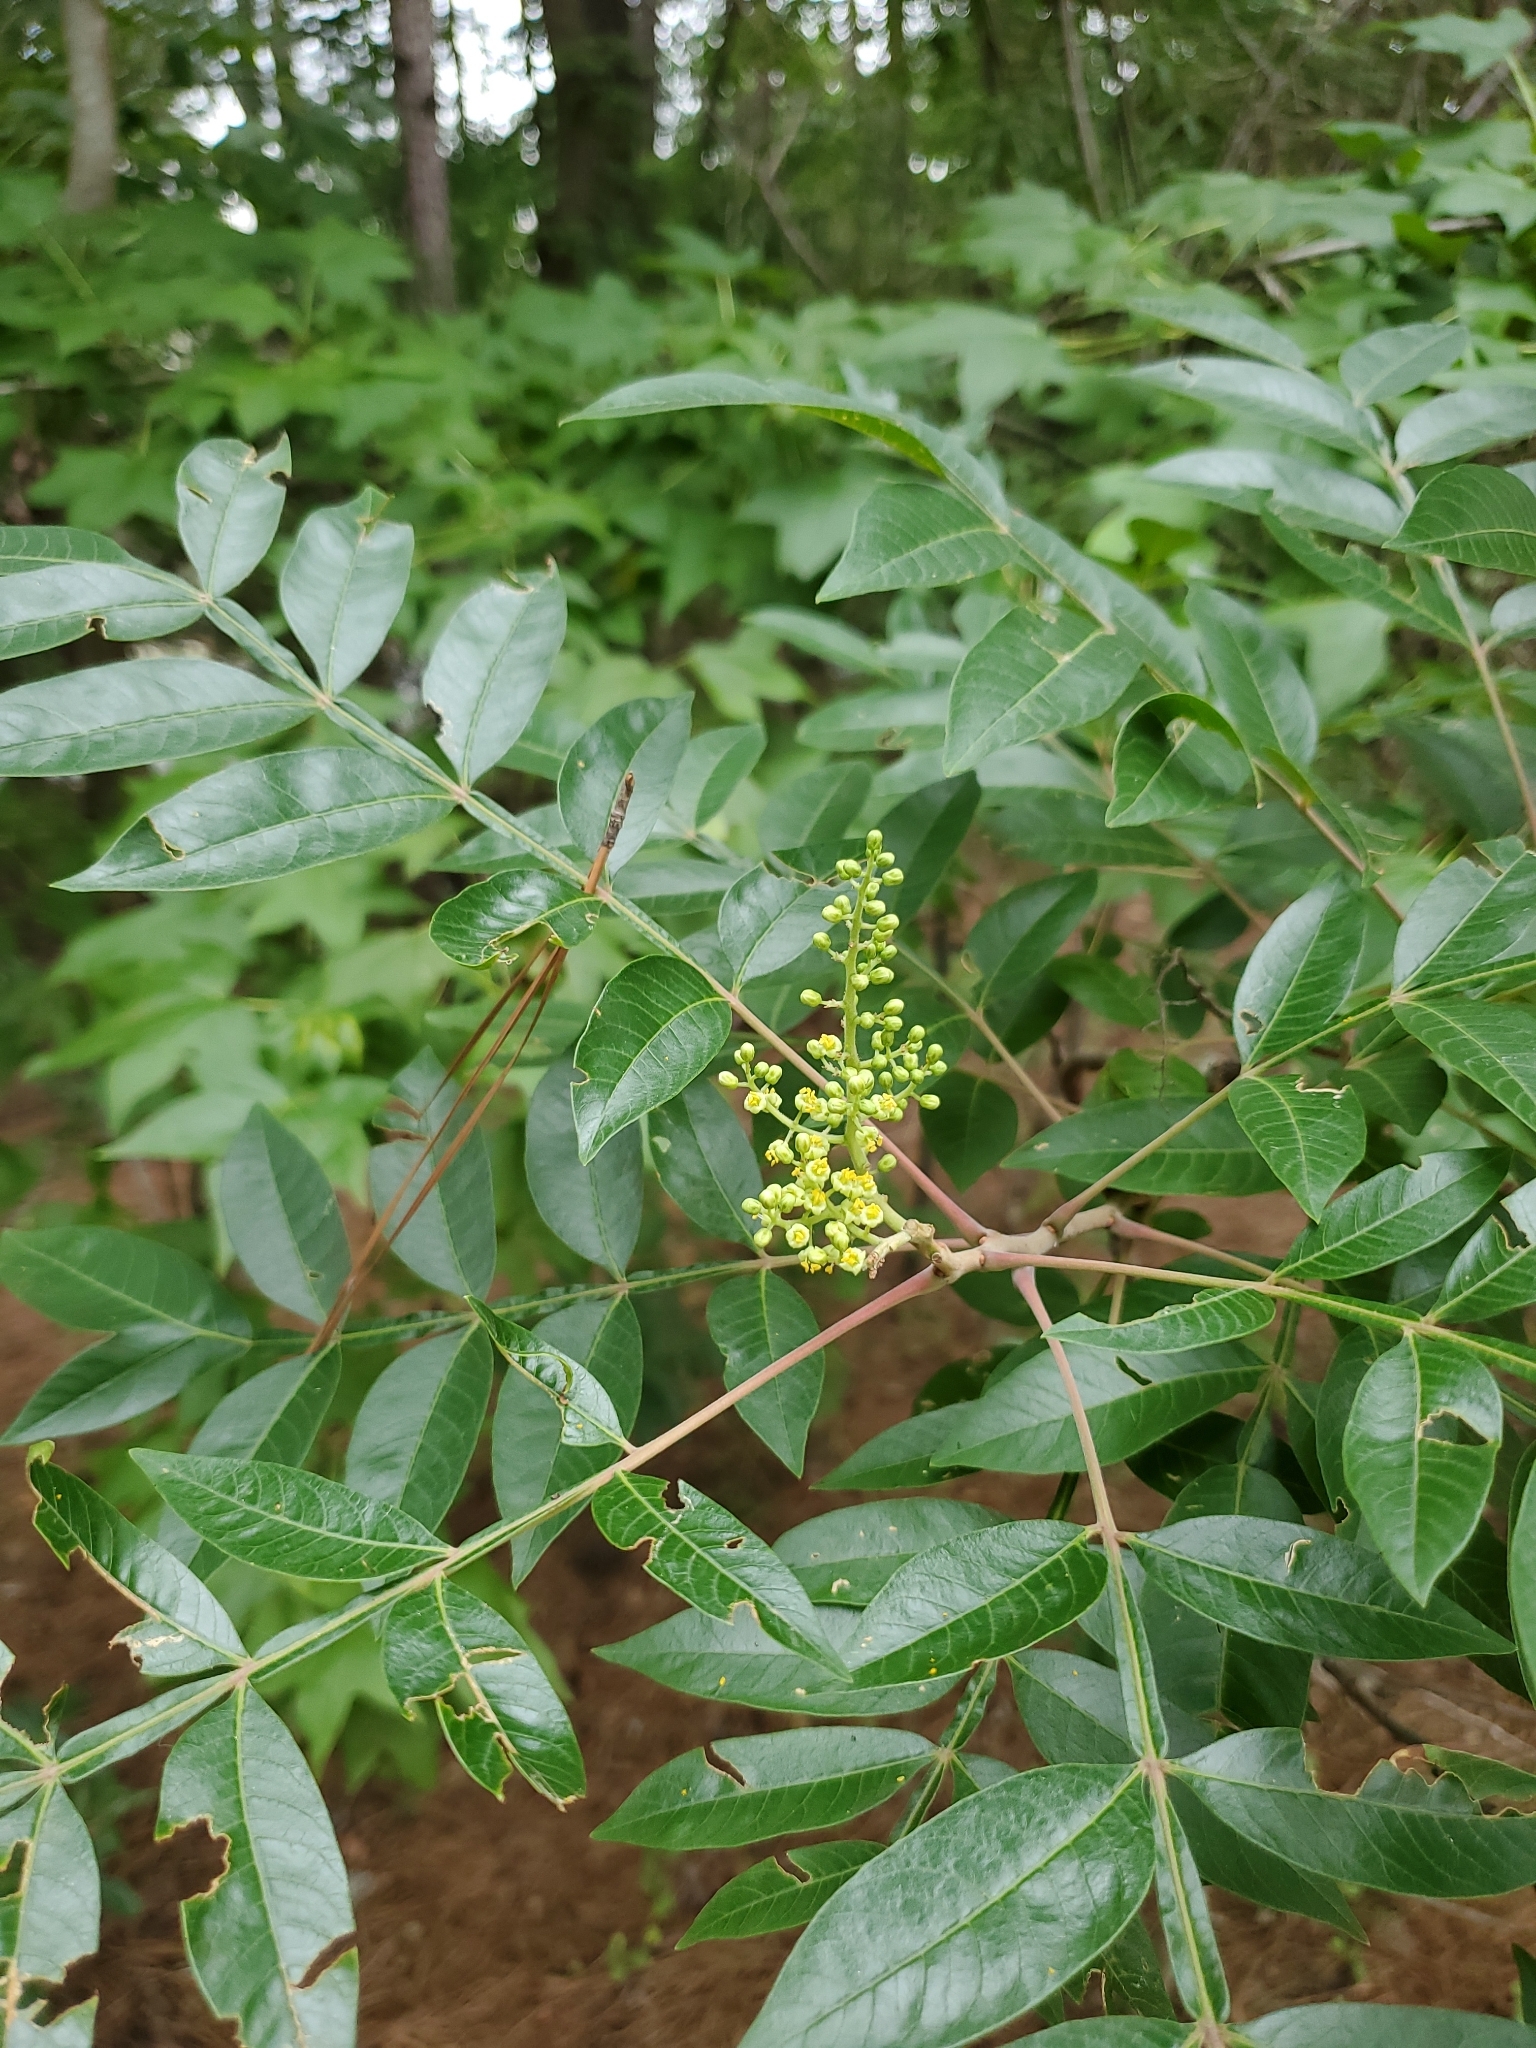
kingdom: Plantae
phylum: Tracheophyta
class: Magnoliopsida
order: Sapindales
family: Anacardiaceae
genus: Rhus
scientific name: Rhus copallina
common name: Shining sumac
